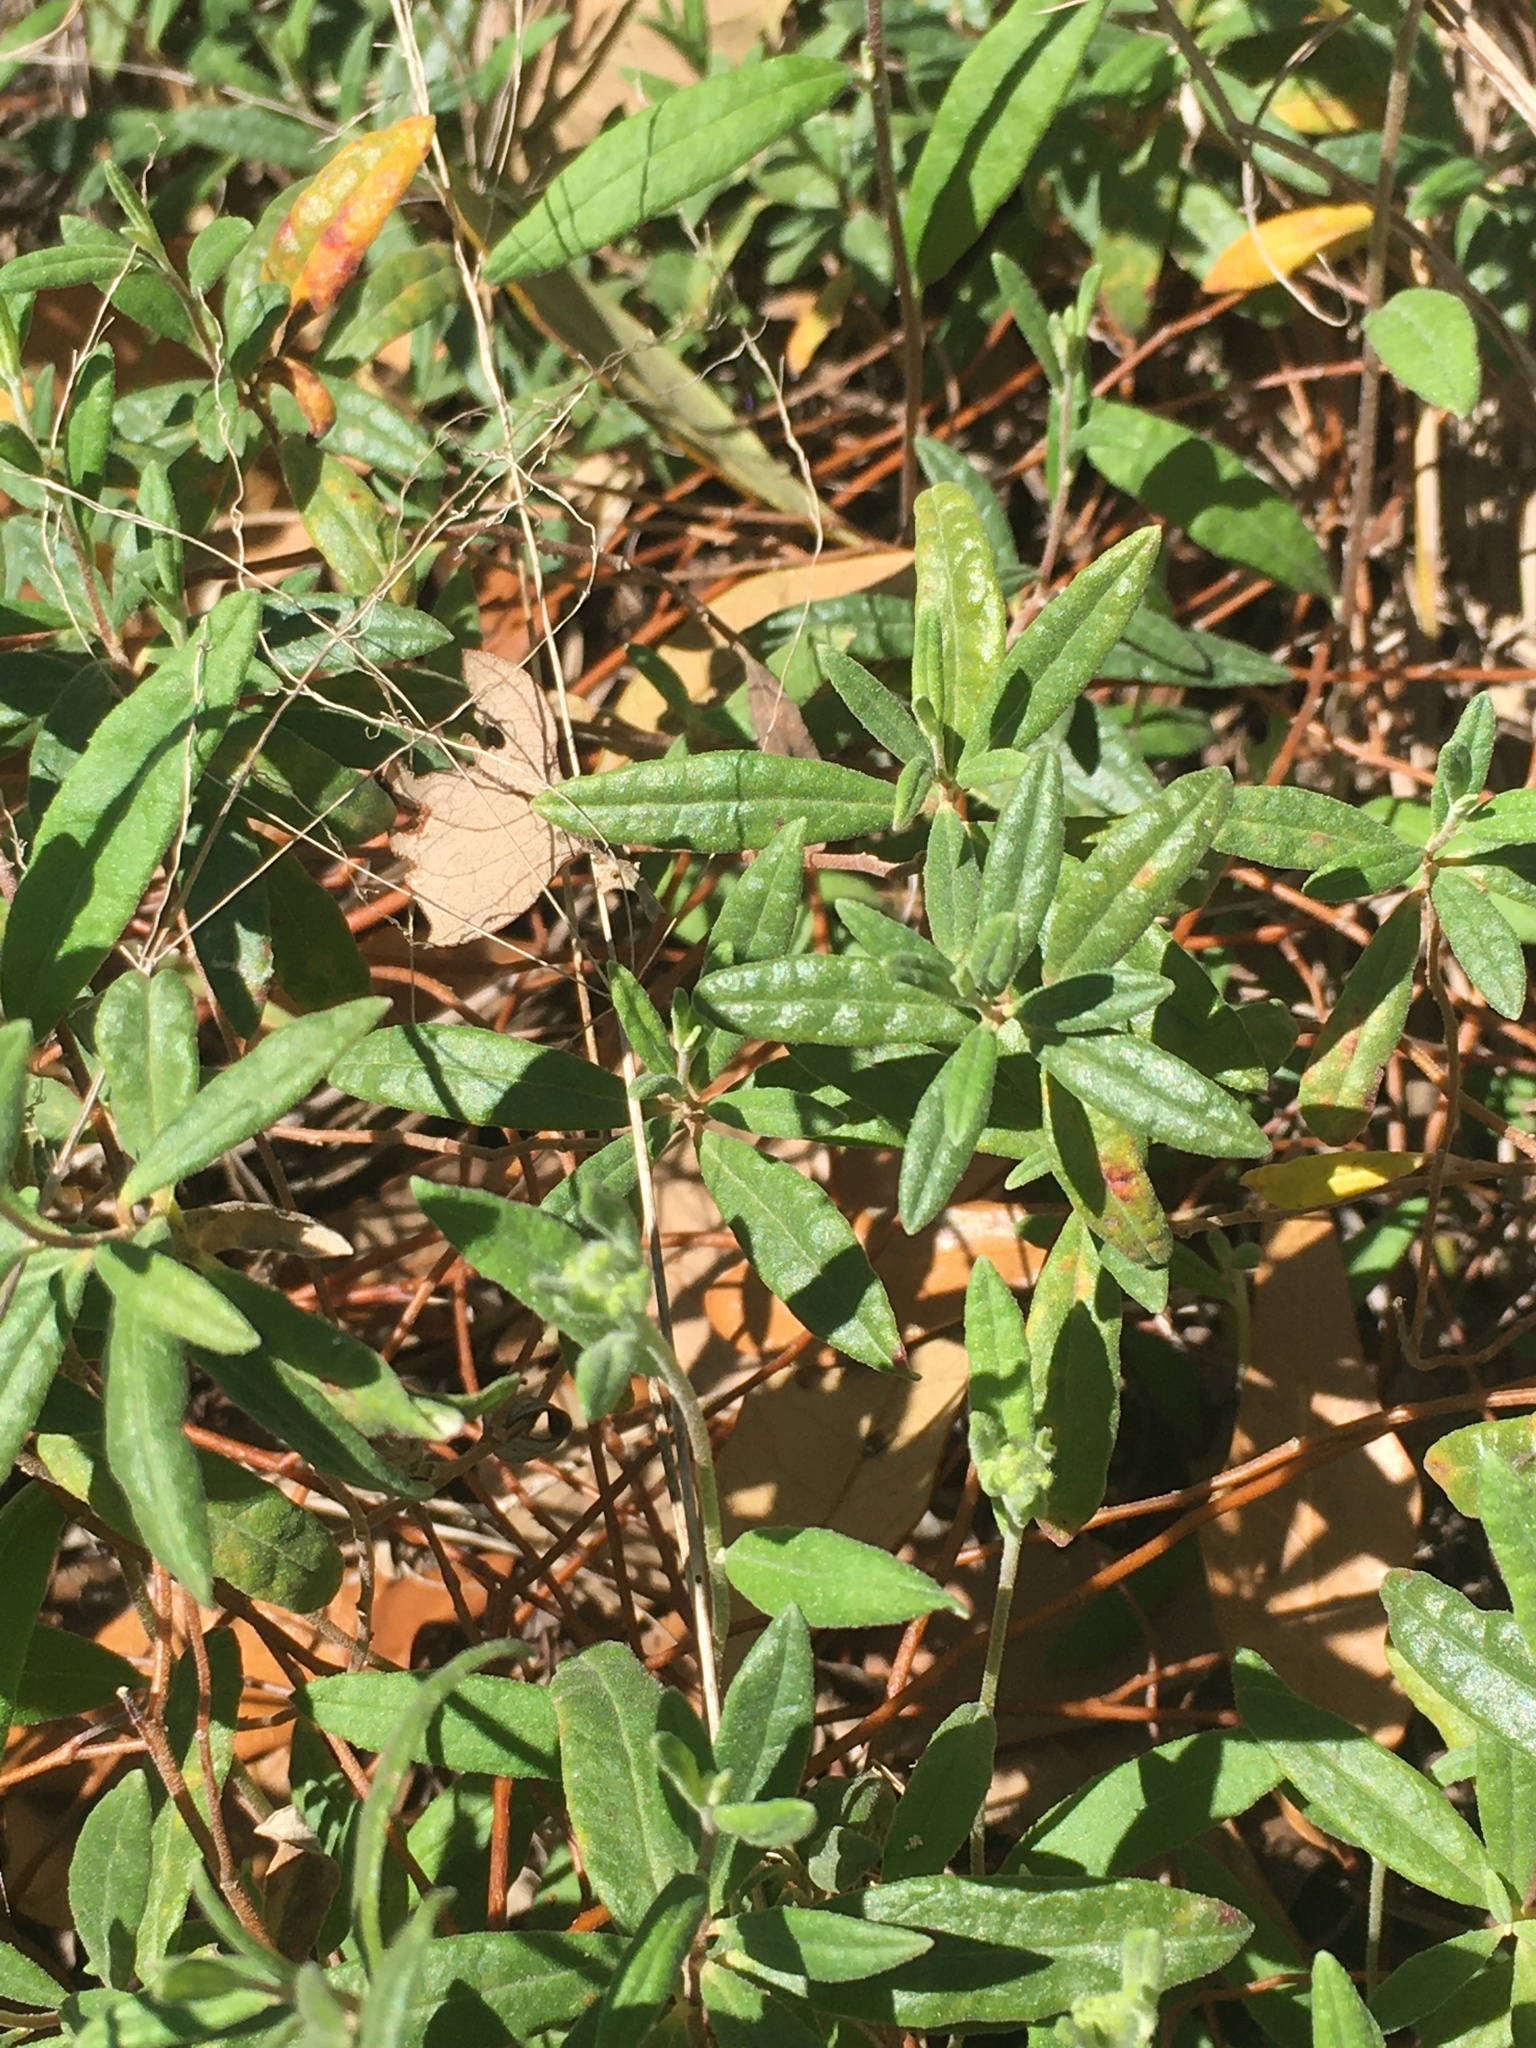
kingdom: Plantae
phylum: Tracheophyta
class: Magnoliopsida
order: Malvales
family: Cistaceae
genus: Crocanthemum
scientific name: Crocanthemum corymbosum
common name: Pinebarren sun-rose
